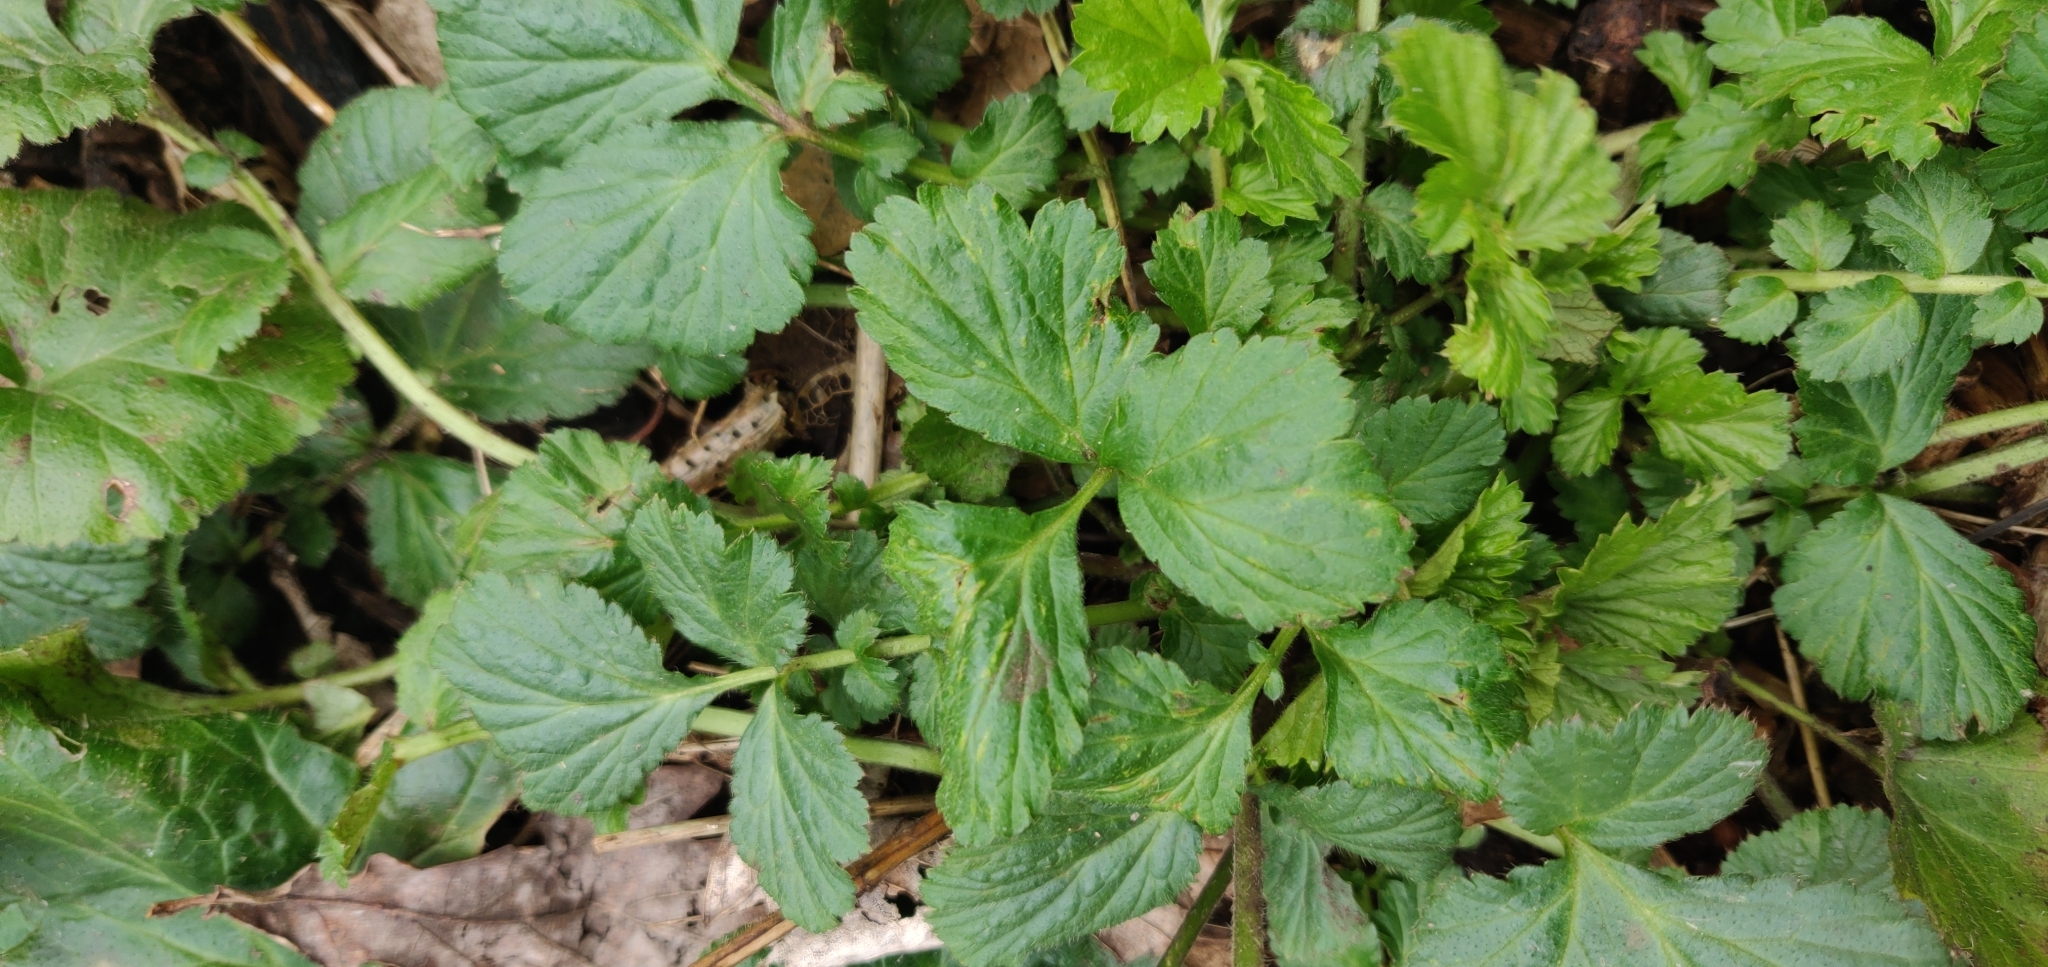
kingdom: Plantae
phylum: Tracheophyta
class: Magnoliopsida
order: Rosales
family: Rosaceae
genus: Geum
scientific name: Geum urbanum
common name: Wood avens
